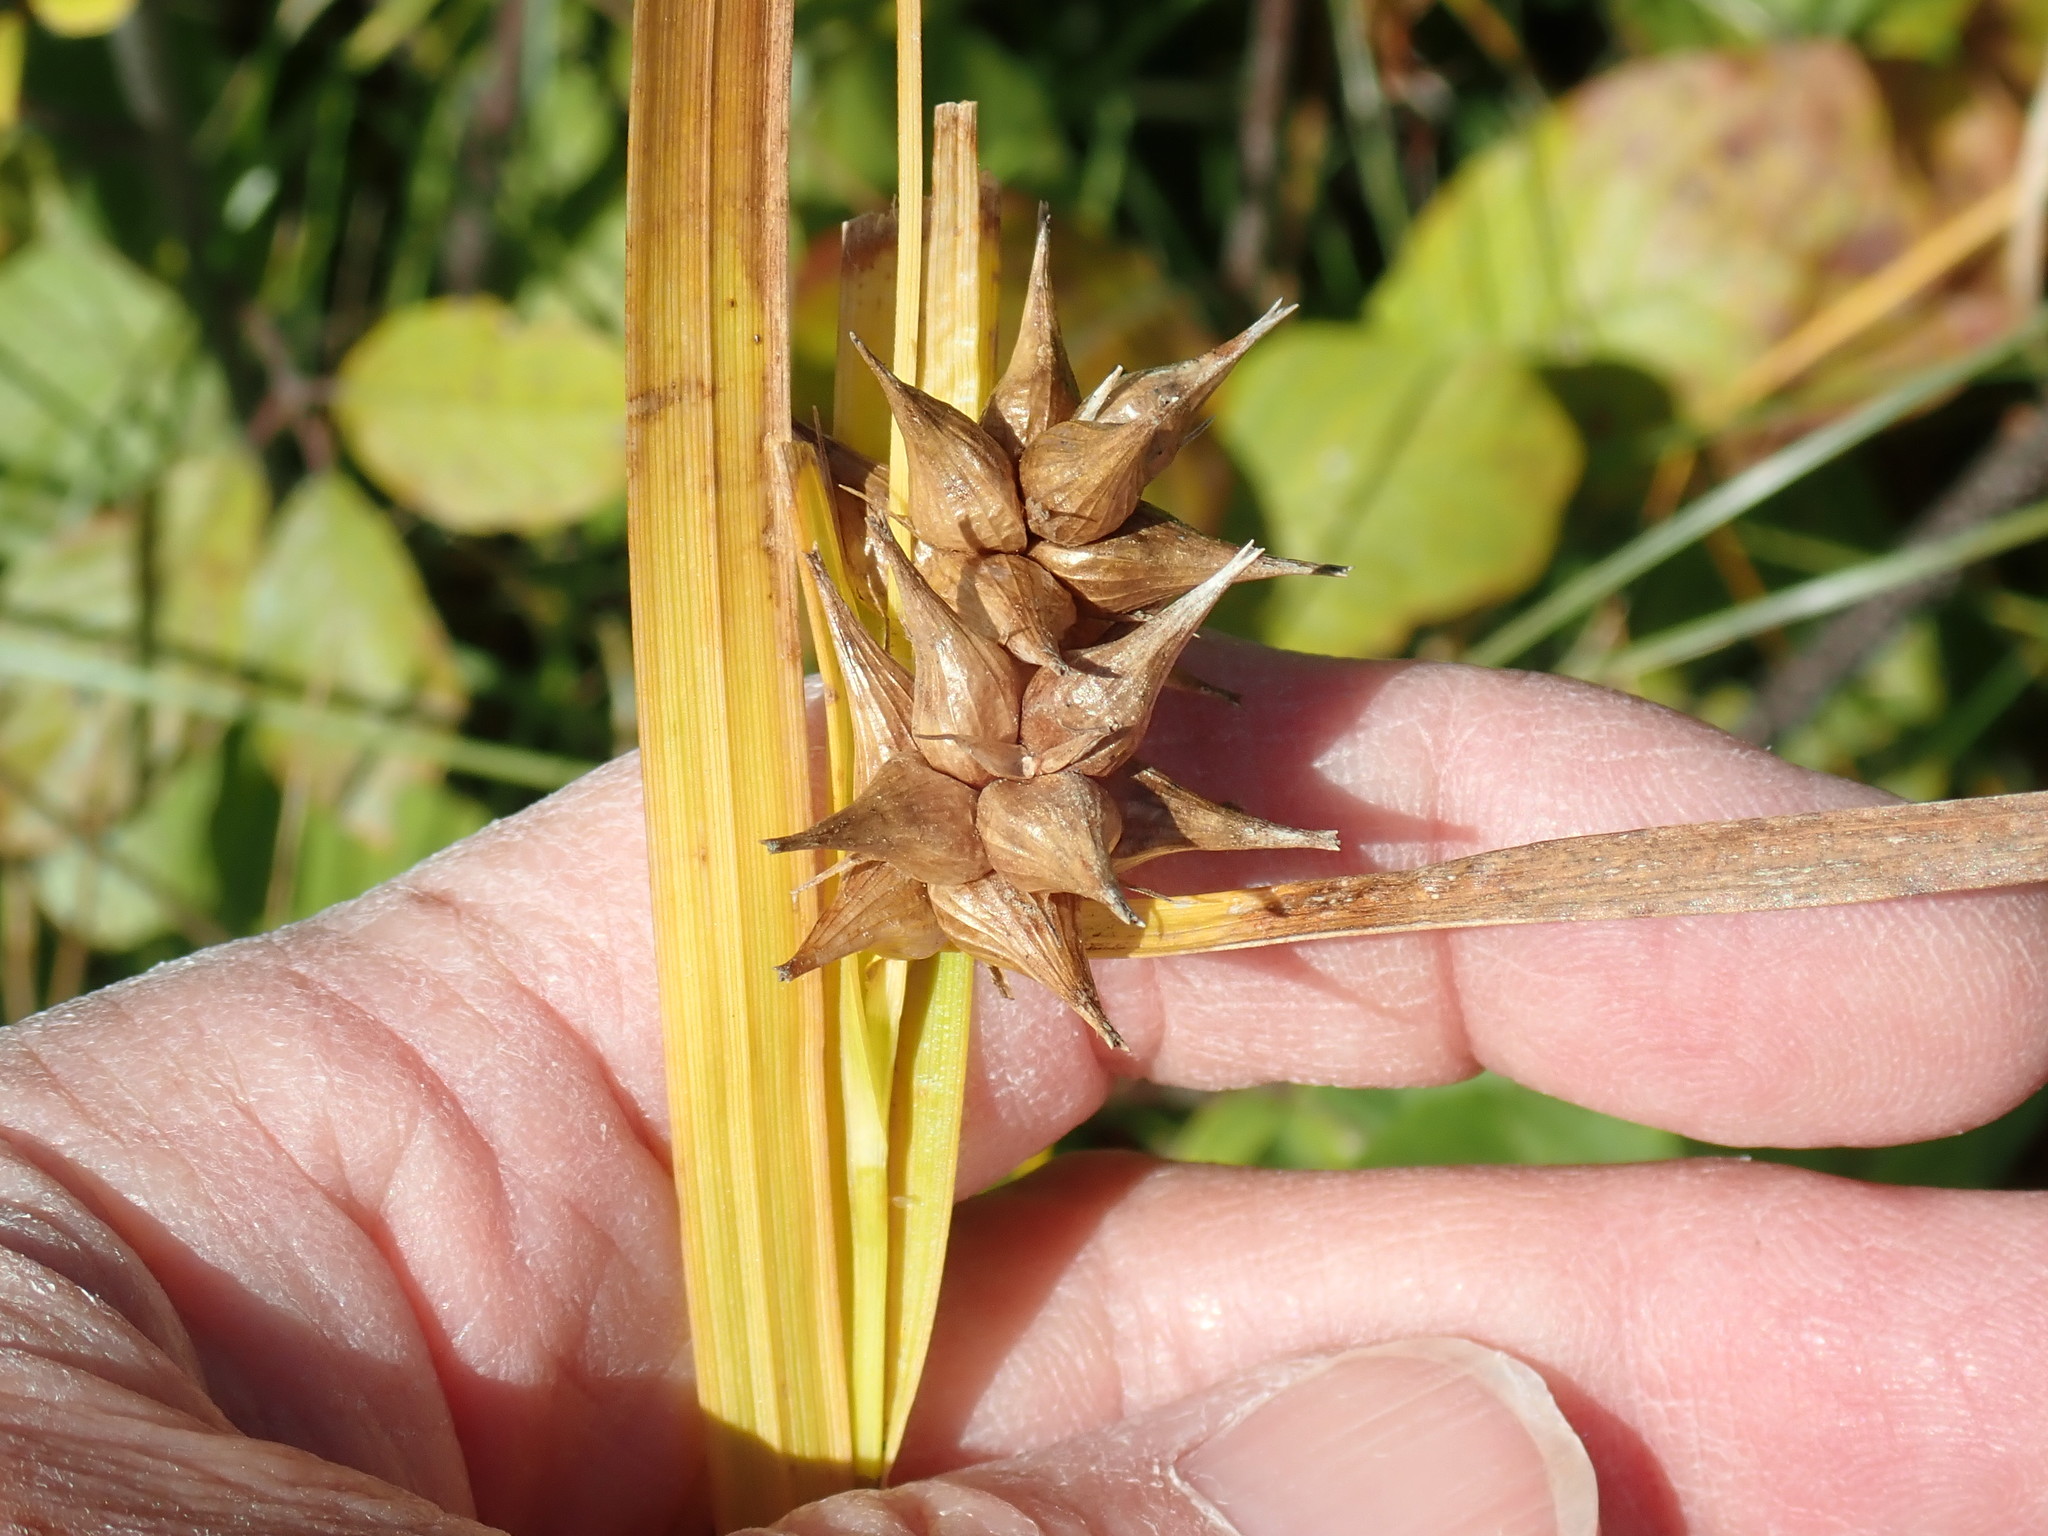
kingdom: Plantae
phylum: Tracheophyta
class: Liliopsida
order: Poales
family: Cyperaceae
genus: Carex
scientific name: Carex intumescens
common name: Greater bladder sedge
